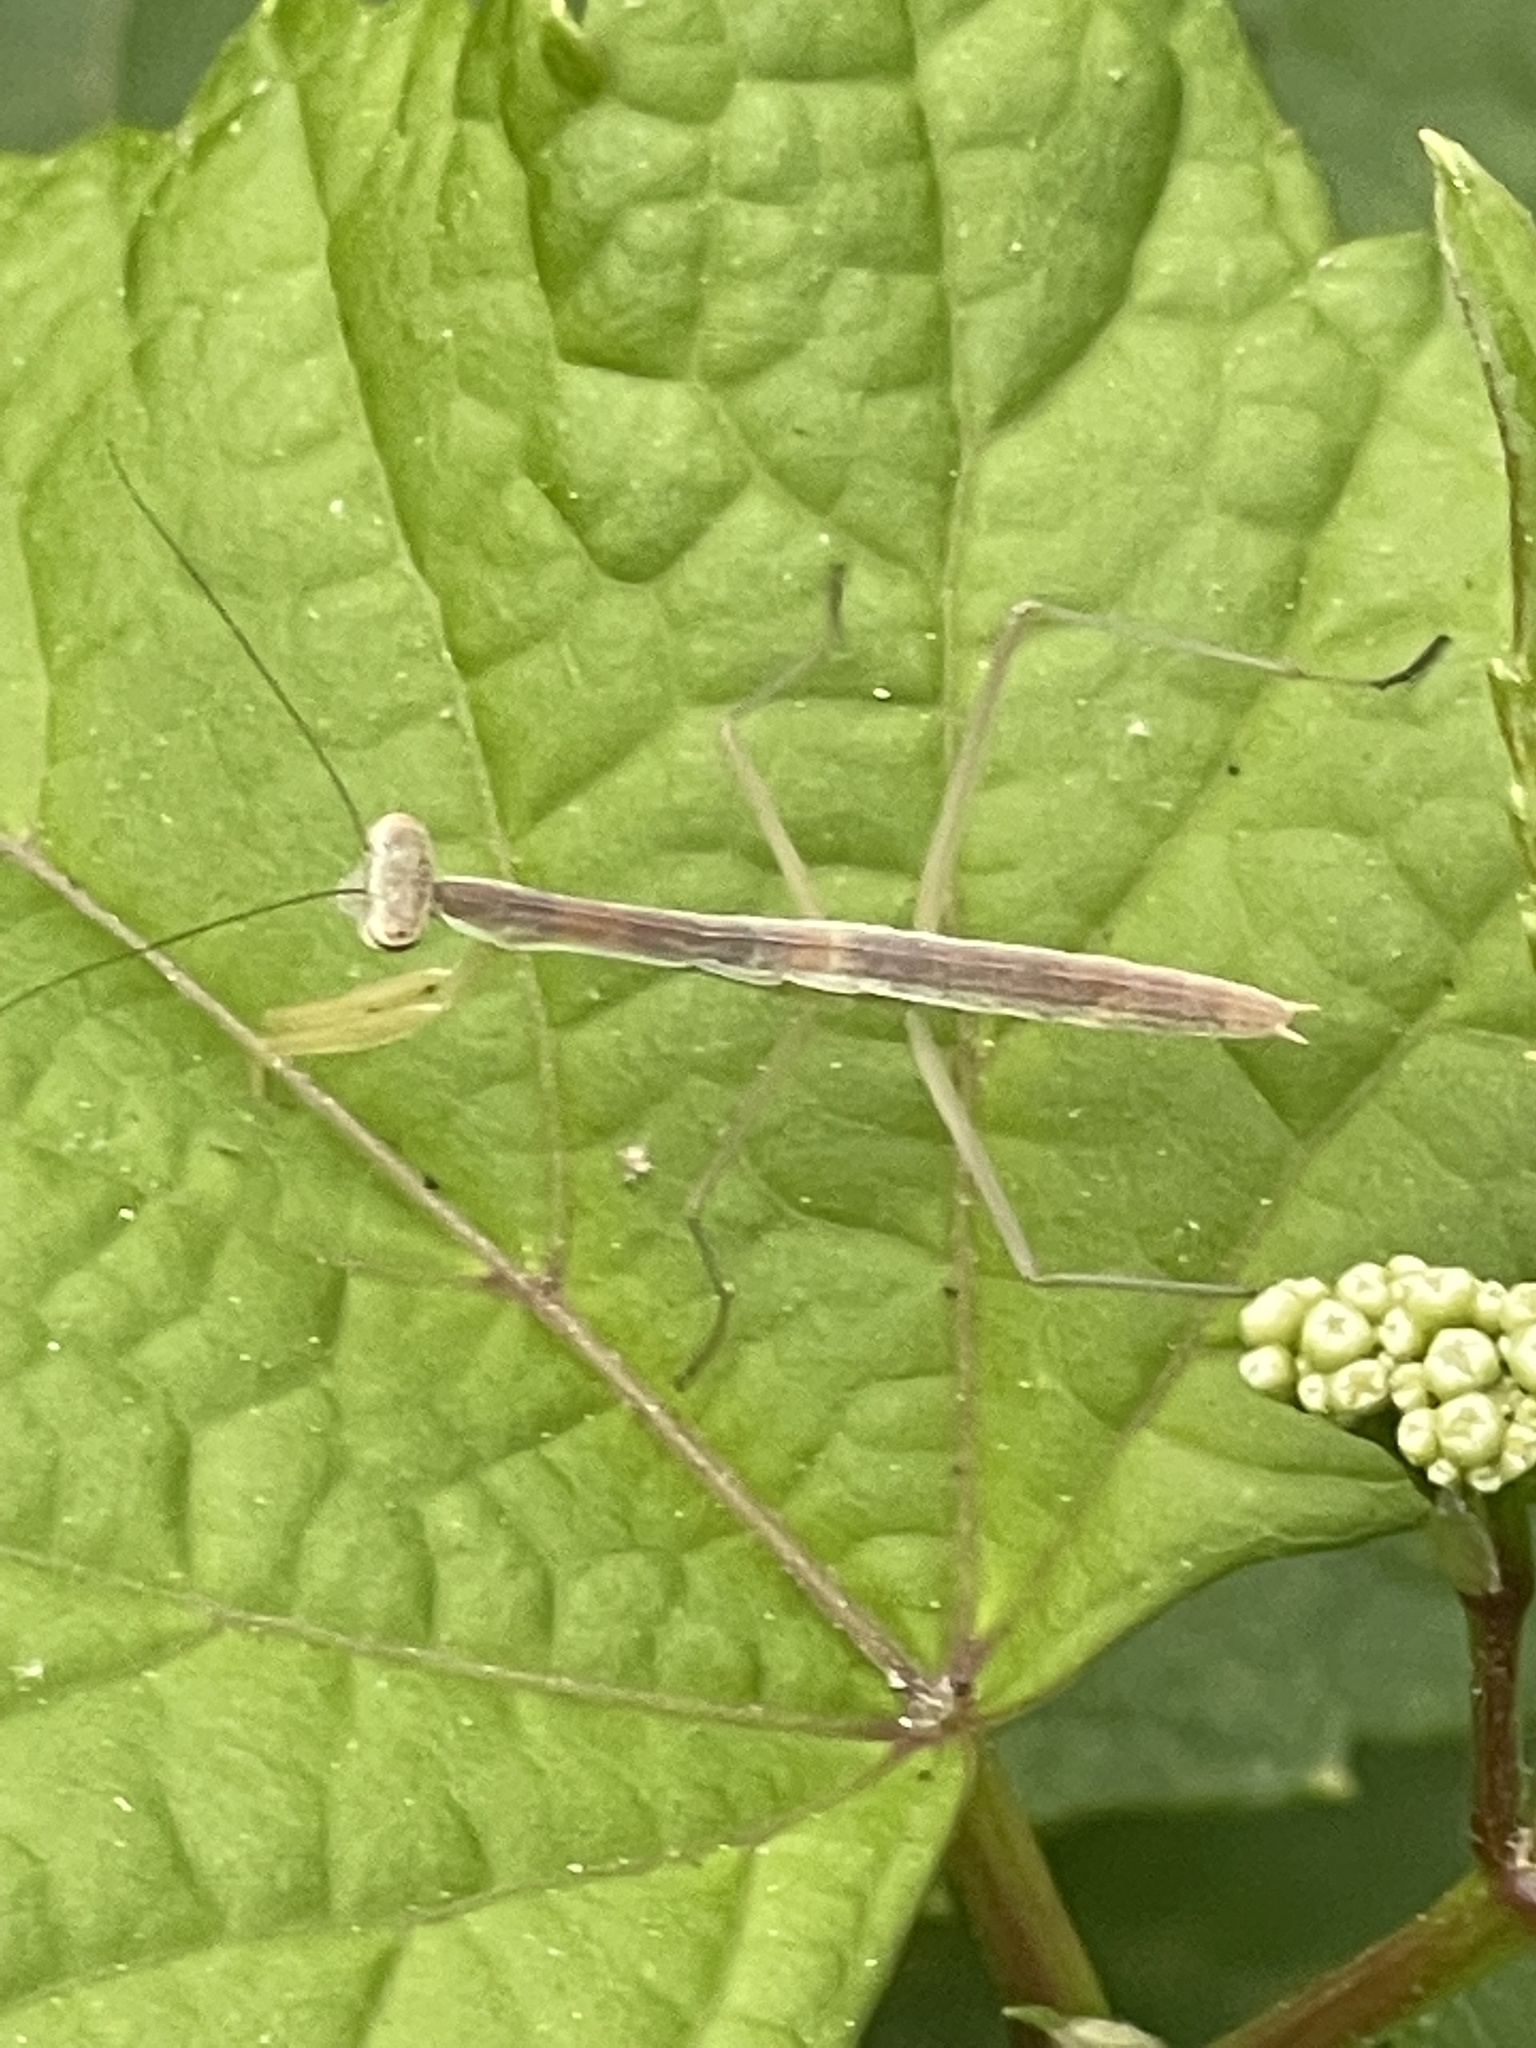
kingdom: Animalia
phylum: Arthropoda
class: Insecta
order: Mantodea
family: Mantidae
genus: Tenodera
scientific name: Tenodera sinensis
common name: Chinese mantis
